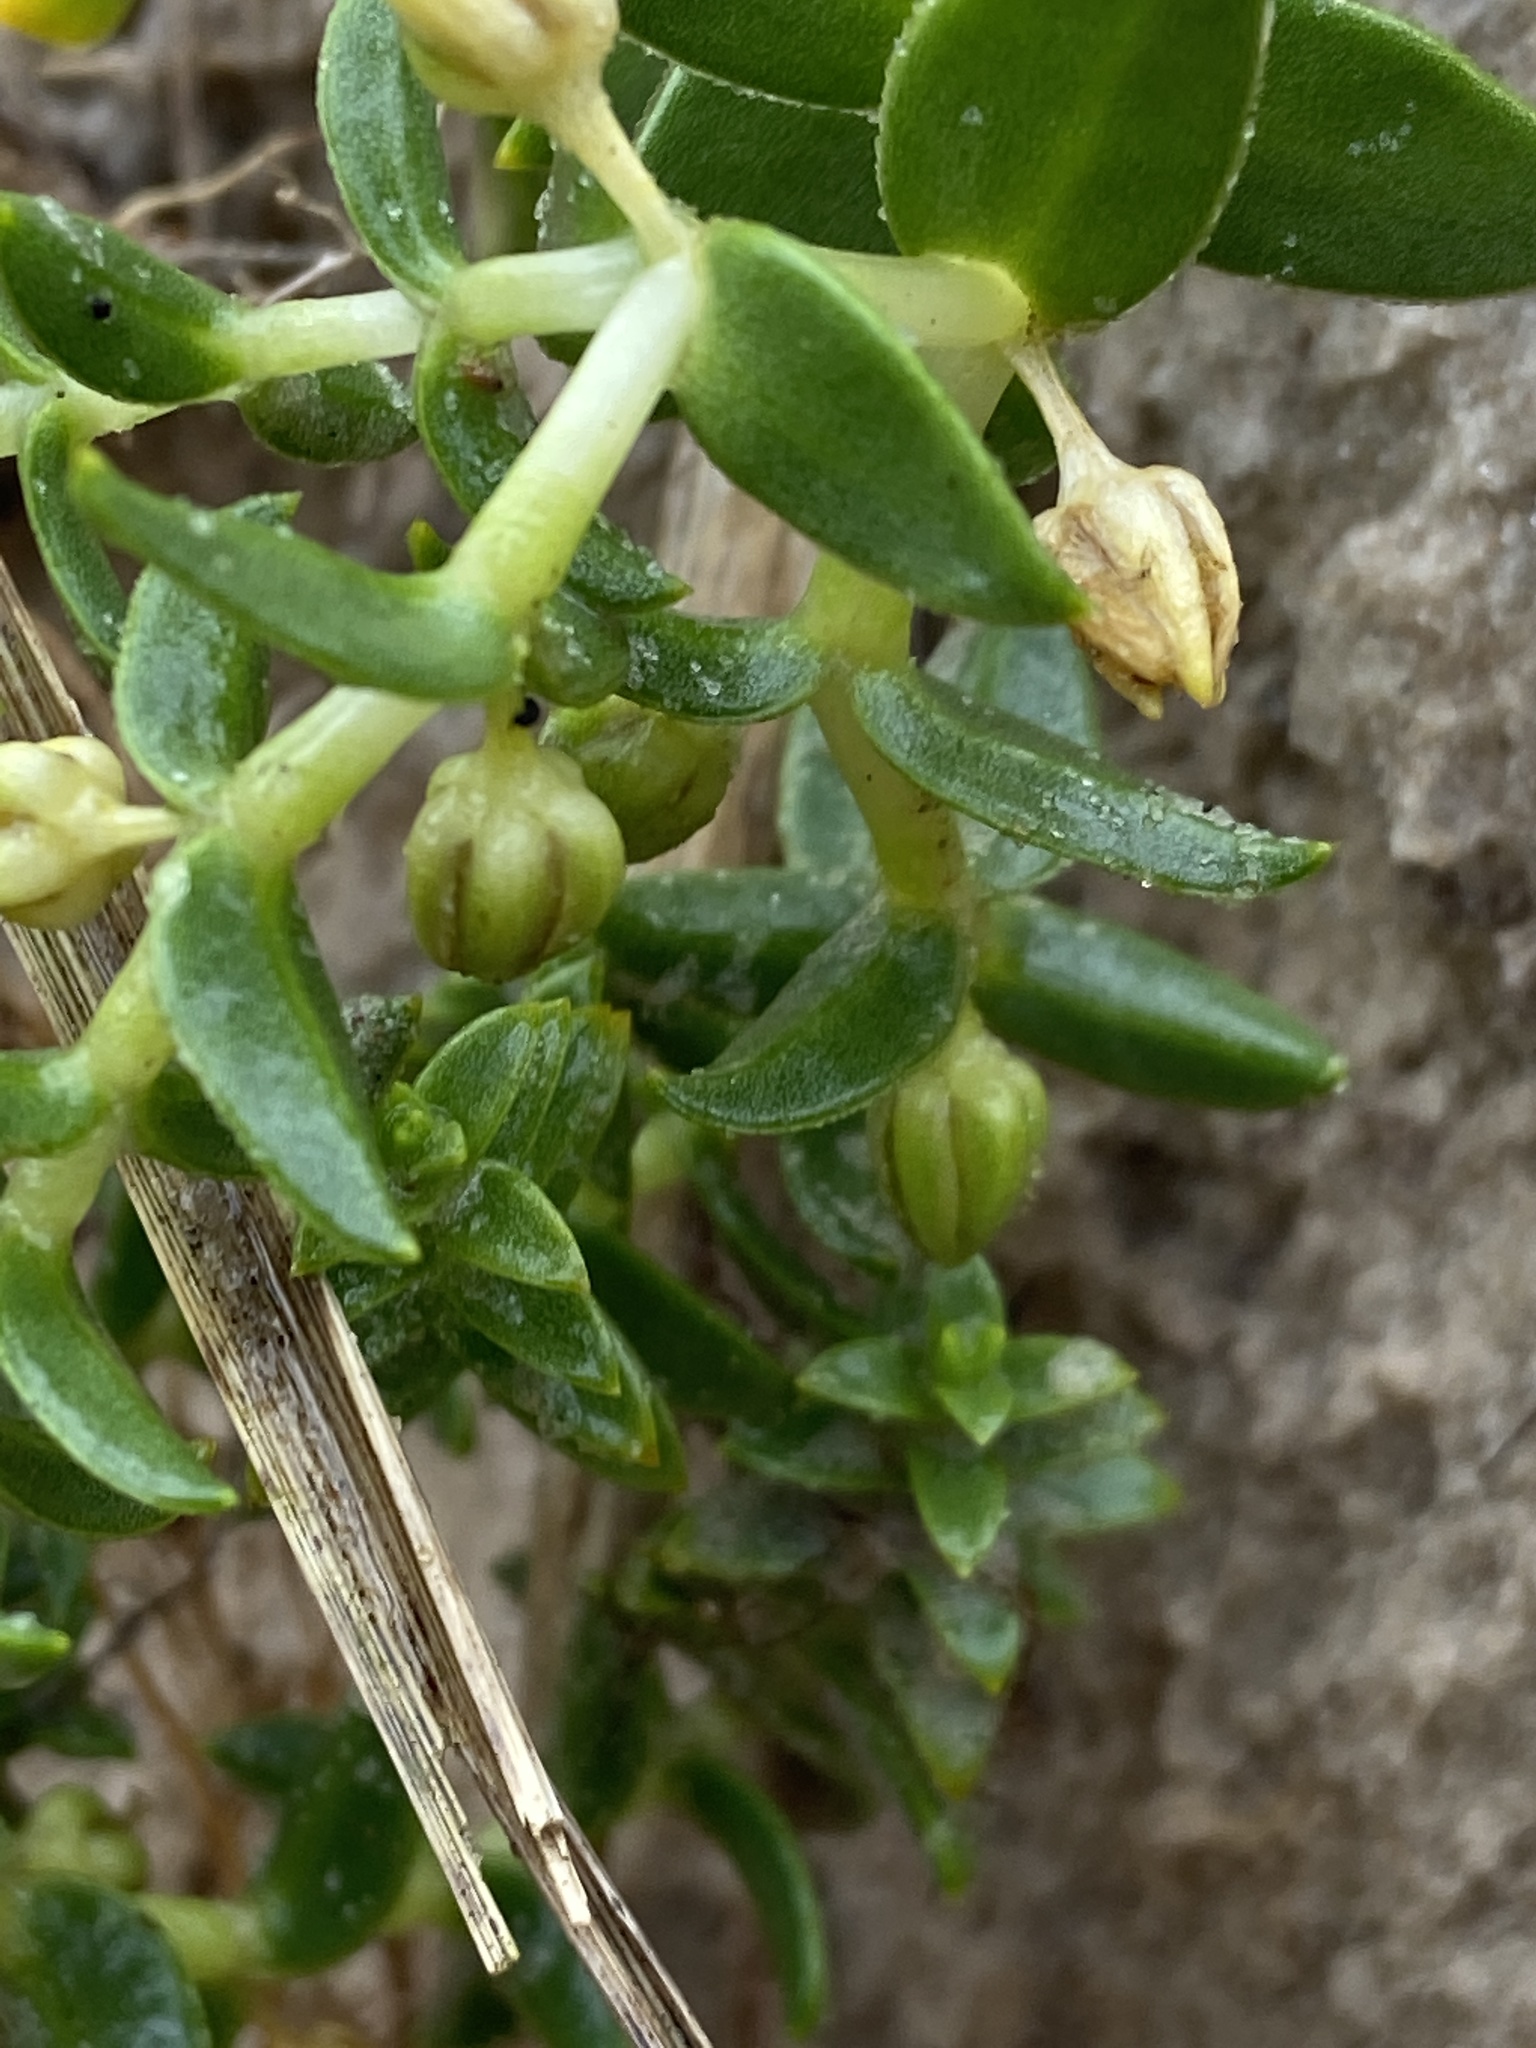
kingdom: Plantae
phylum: Tracheophyta
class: Magnoliopsida
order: Caryophyllales
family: Caryophyllaceae
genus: Honckenya
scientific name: Honckenya peploides
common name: Sea sandwort
